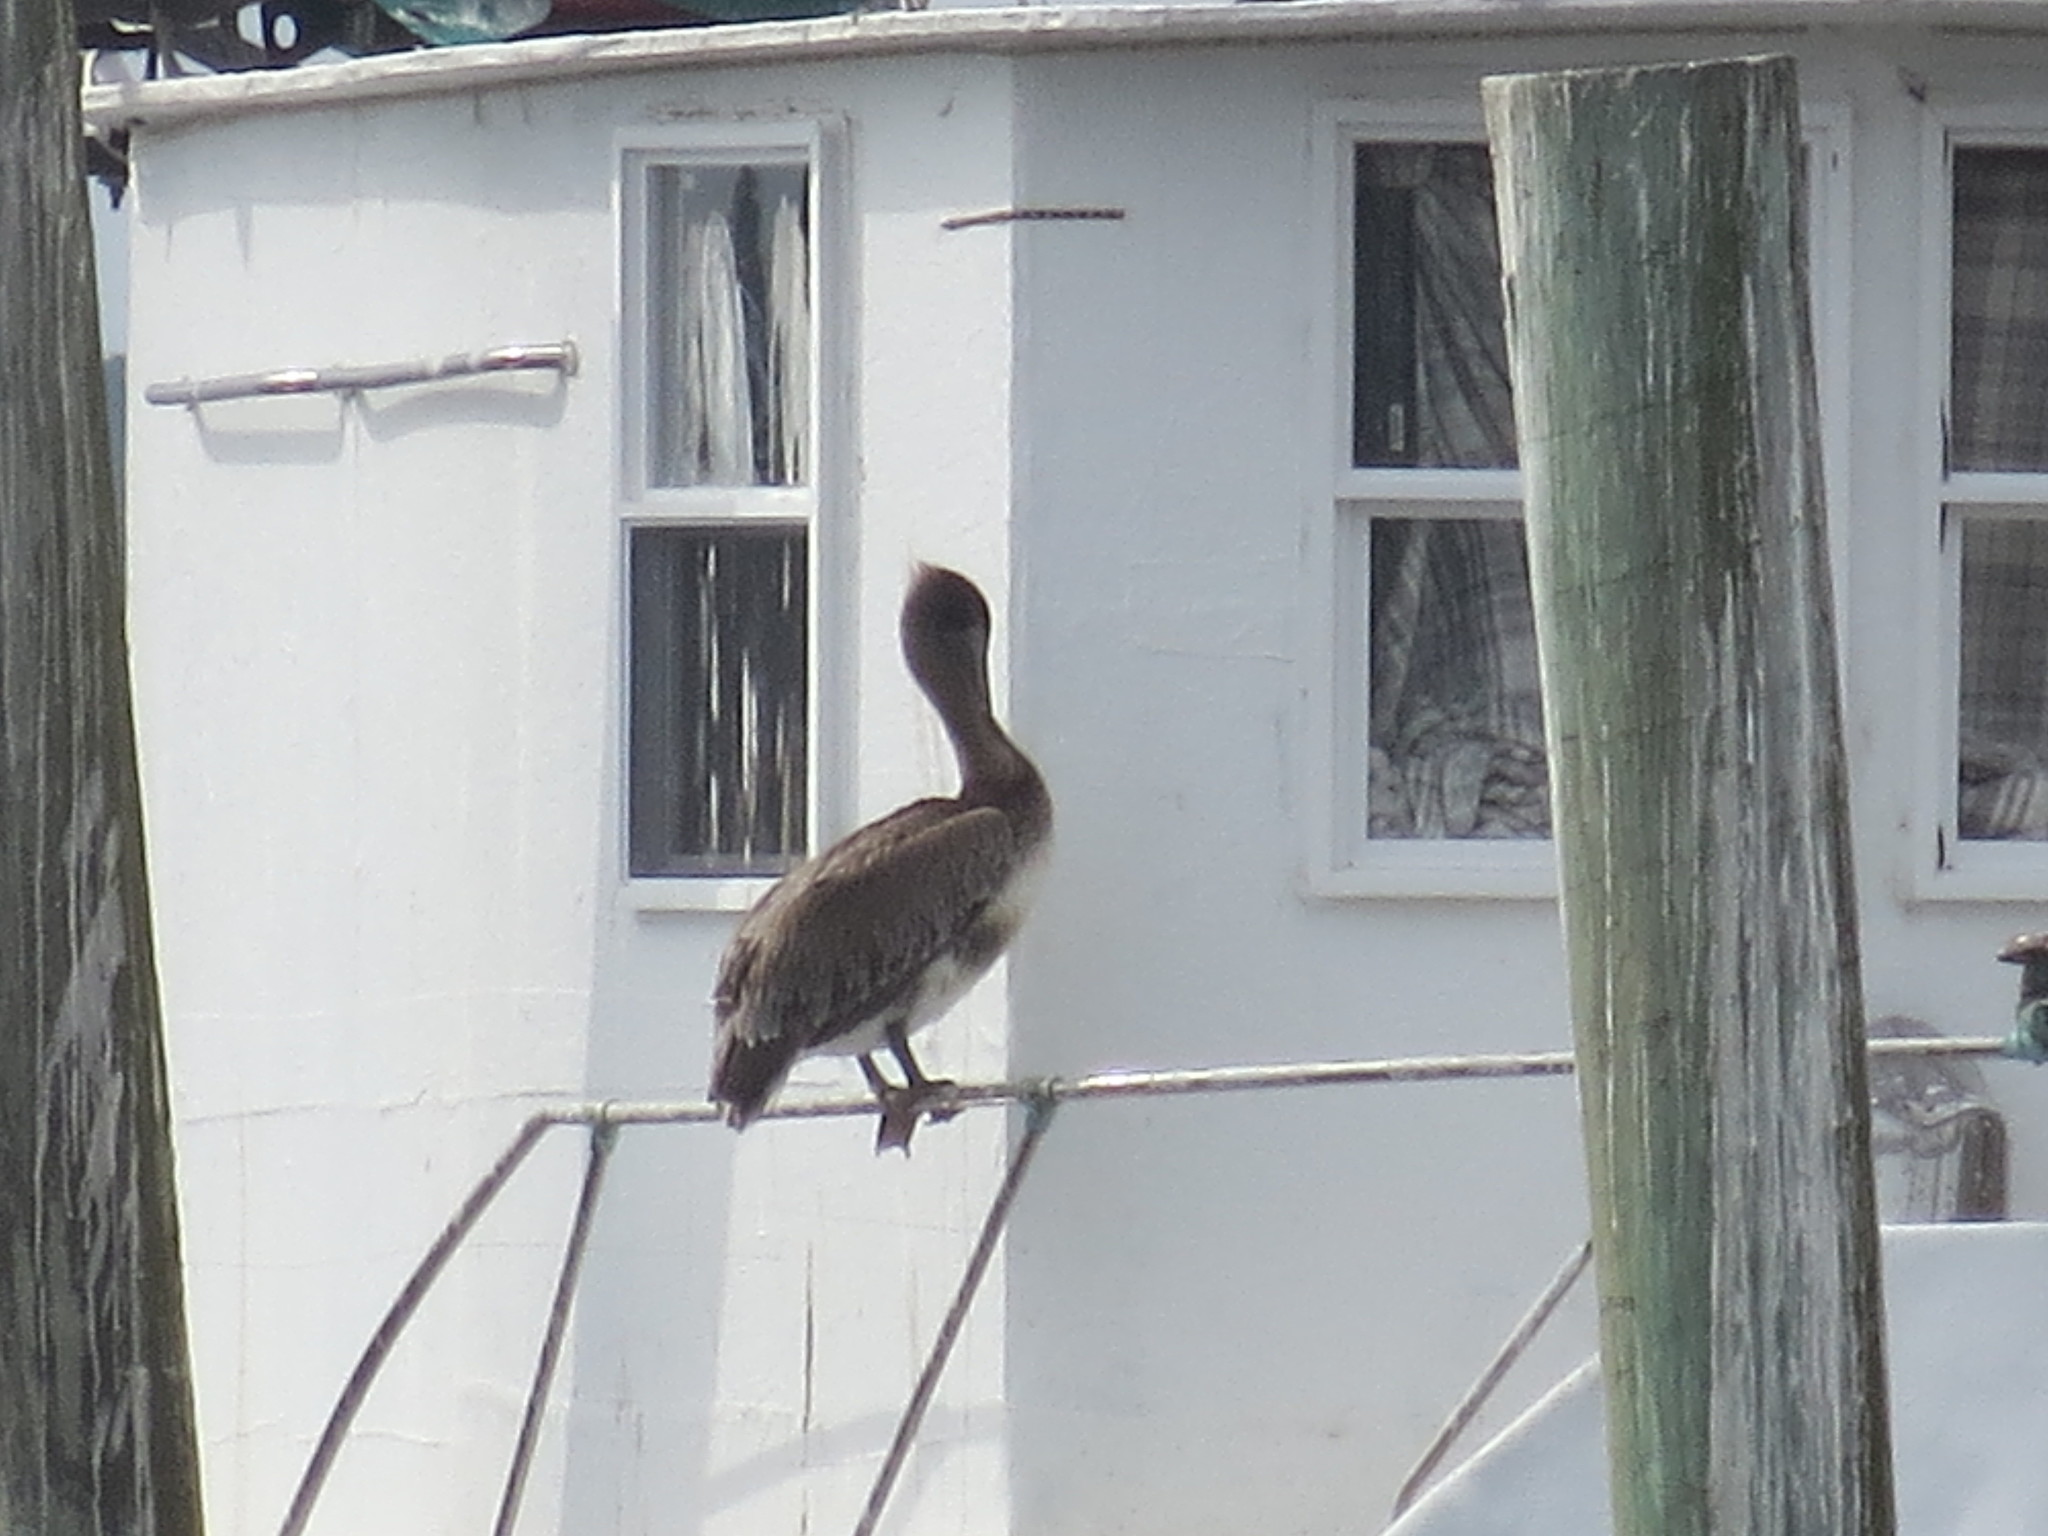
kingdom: Animalia
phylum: Chordata
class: Aves
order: Pelecaniformes
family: Pelecanidae
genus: Pelecanus
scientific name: Pelecanus occidentalis
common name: Brown pelican
